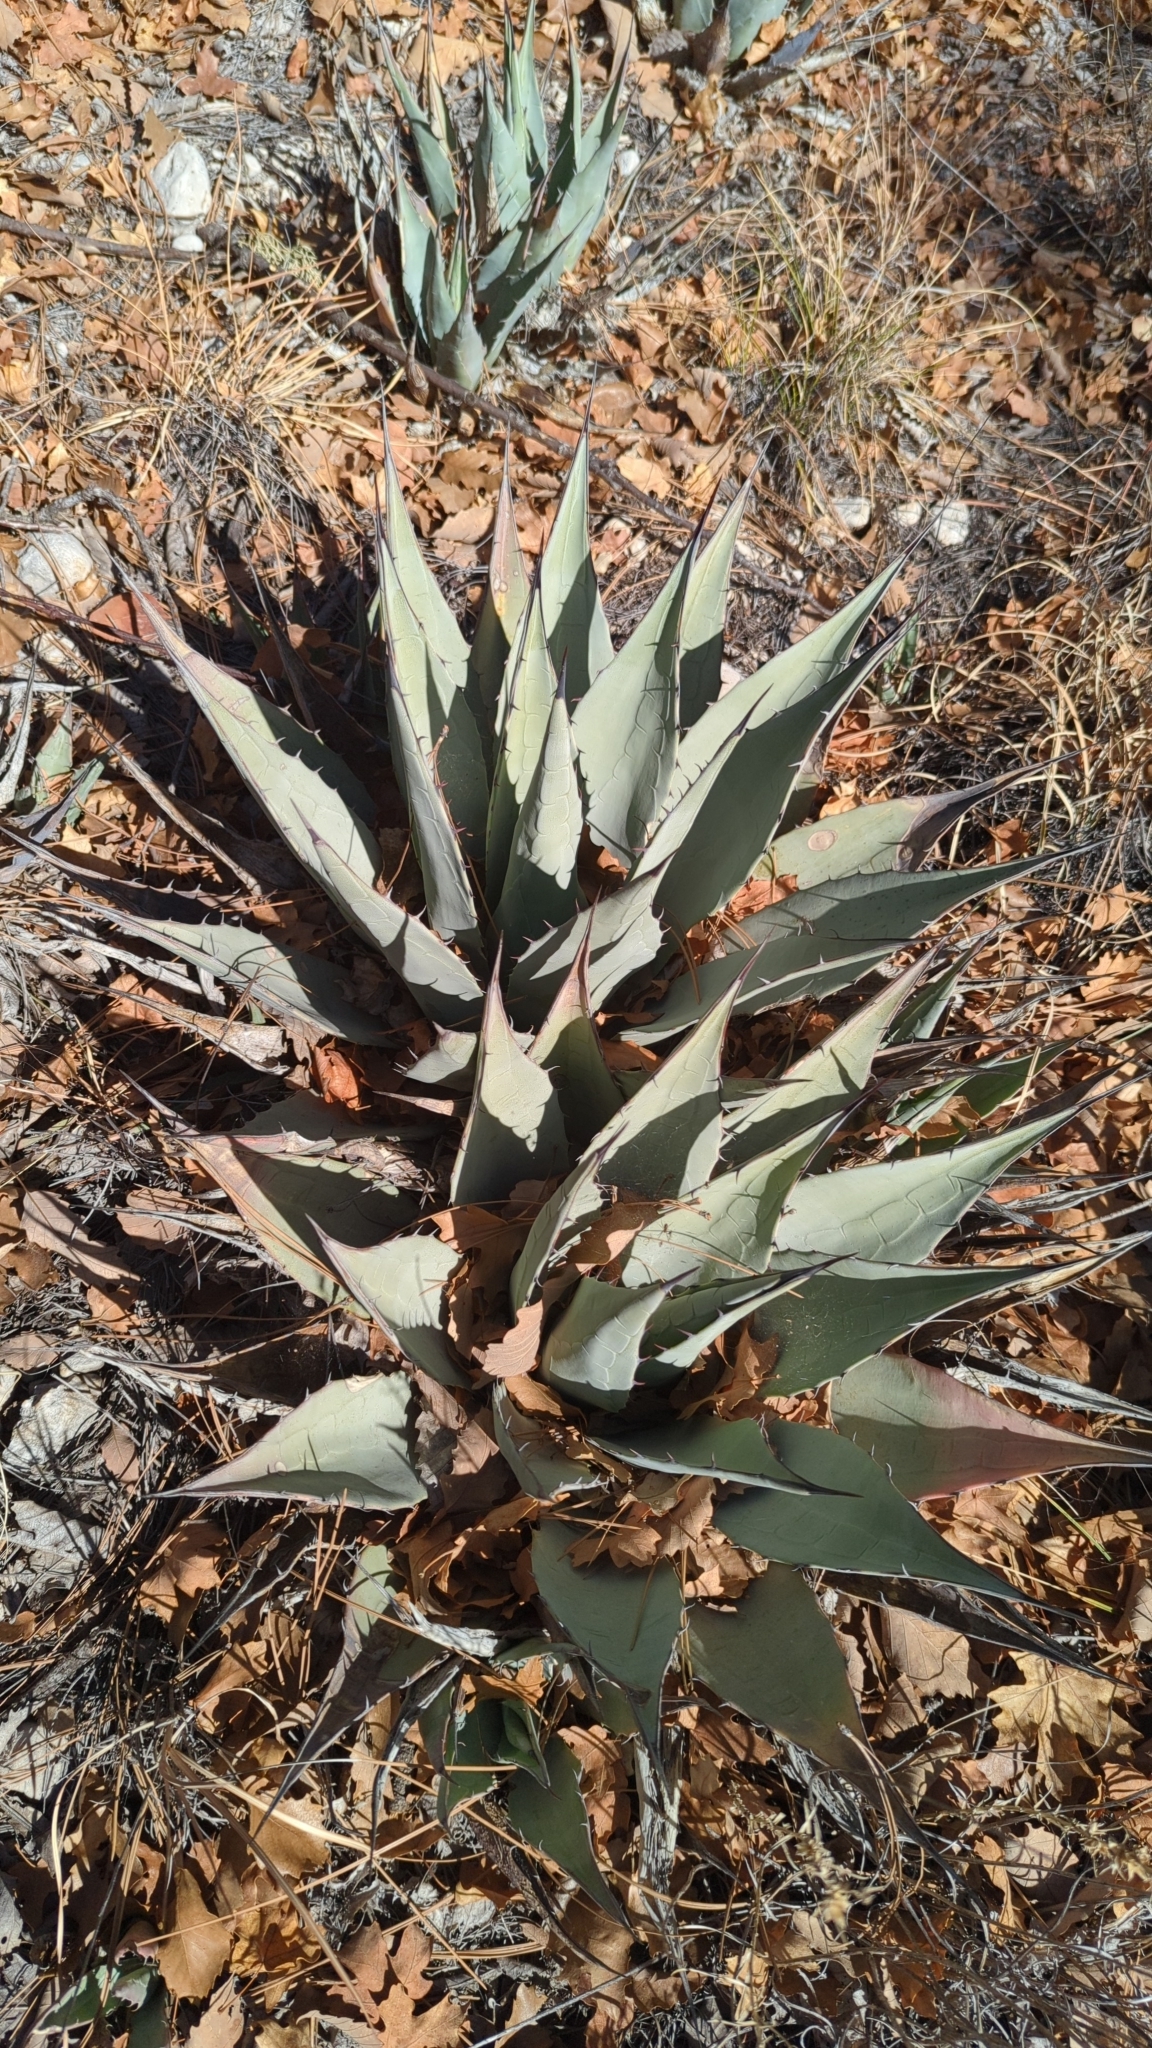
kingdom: Plantae
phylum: Tracheophyta
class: Liliopsida
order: Asparagales
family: Asparagaceae
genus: Agave
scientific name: Agave parryi
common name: Parry's agave
